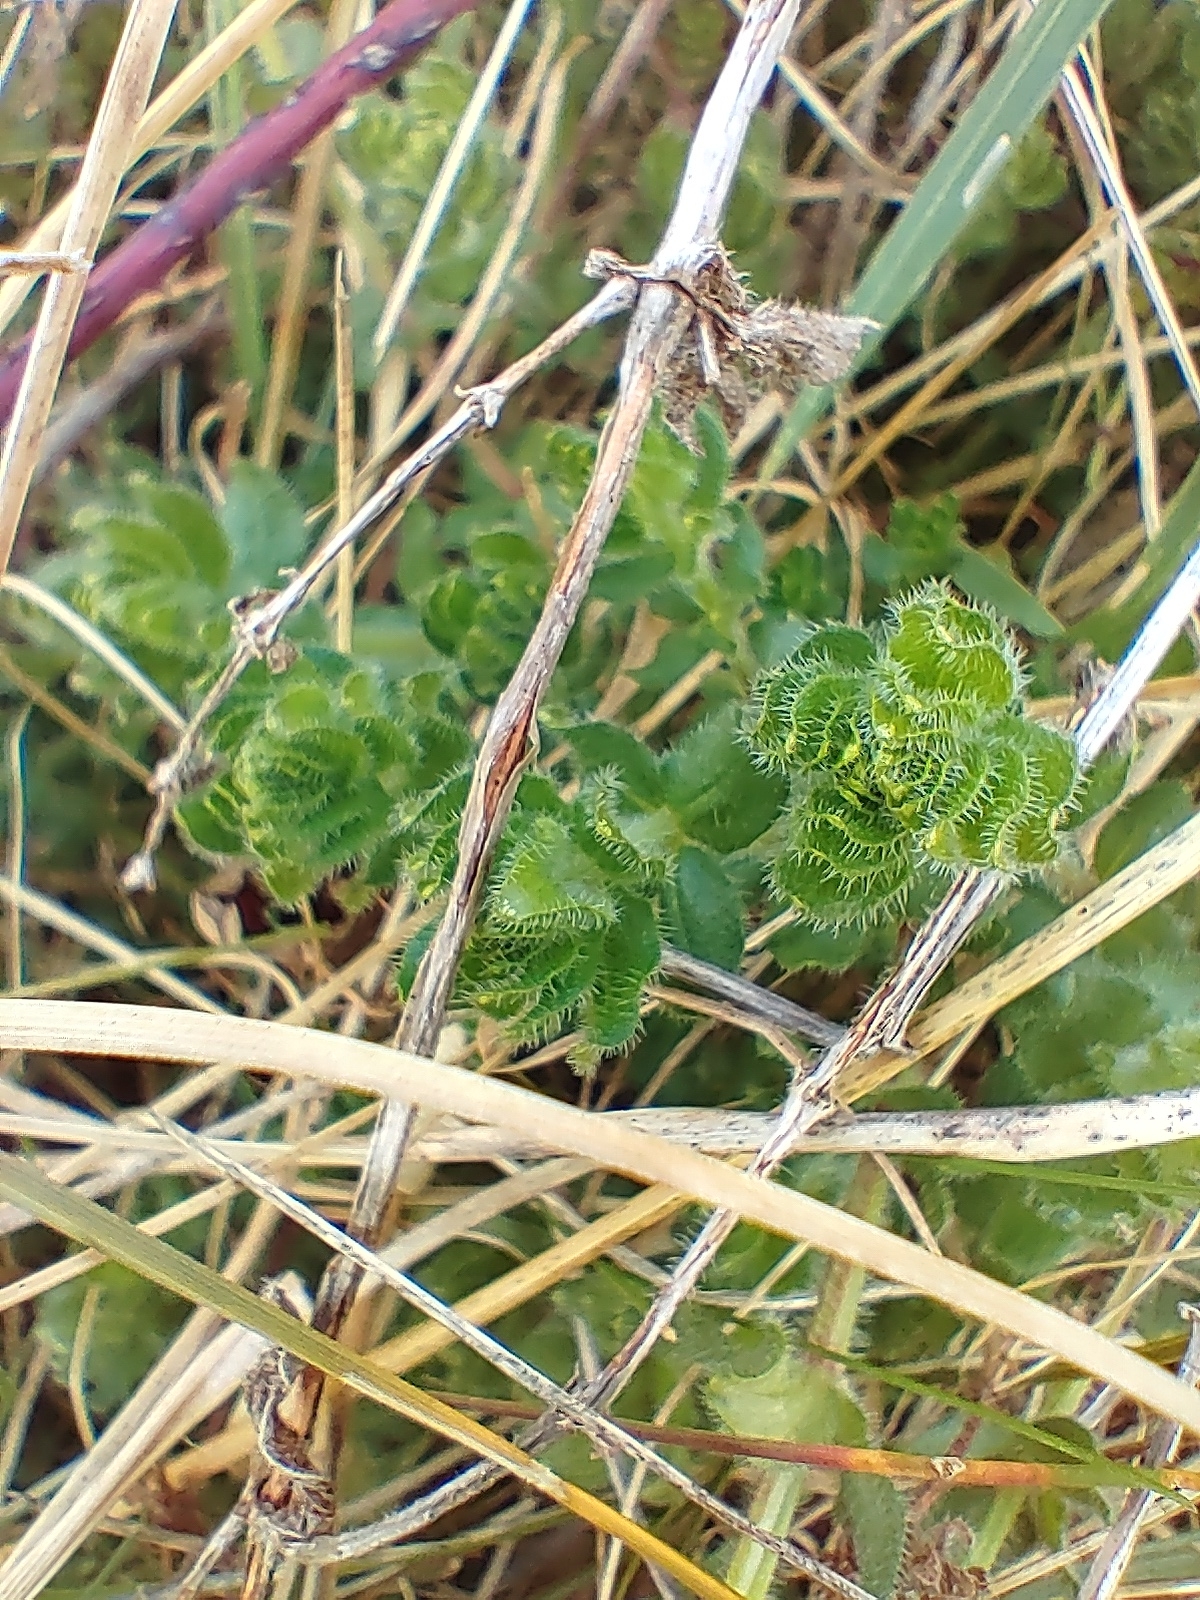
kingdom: Plantae
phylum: Tracheophyta
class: Magnoliopsida
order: Gentianales
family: Rubiaceae
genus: Cruciata
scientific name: Cruciata laevipes
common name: Crosswort
